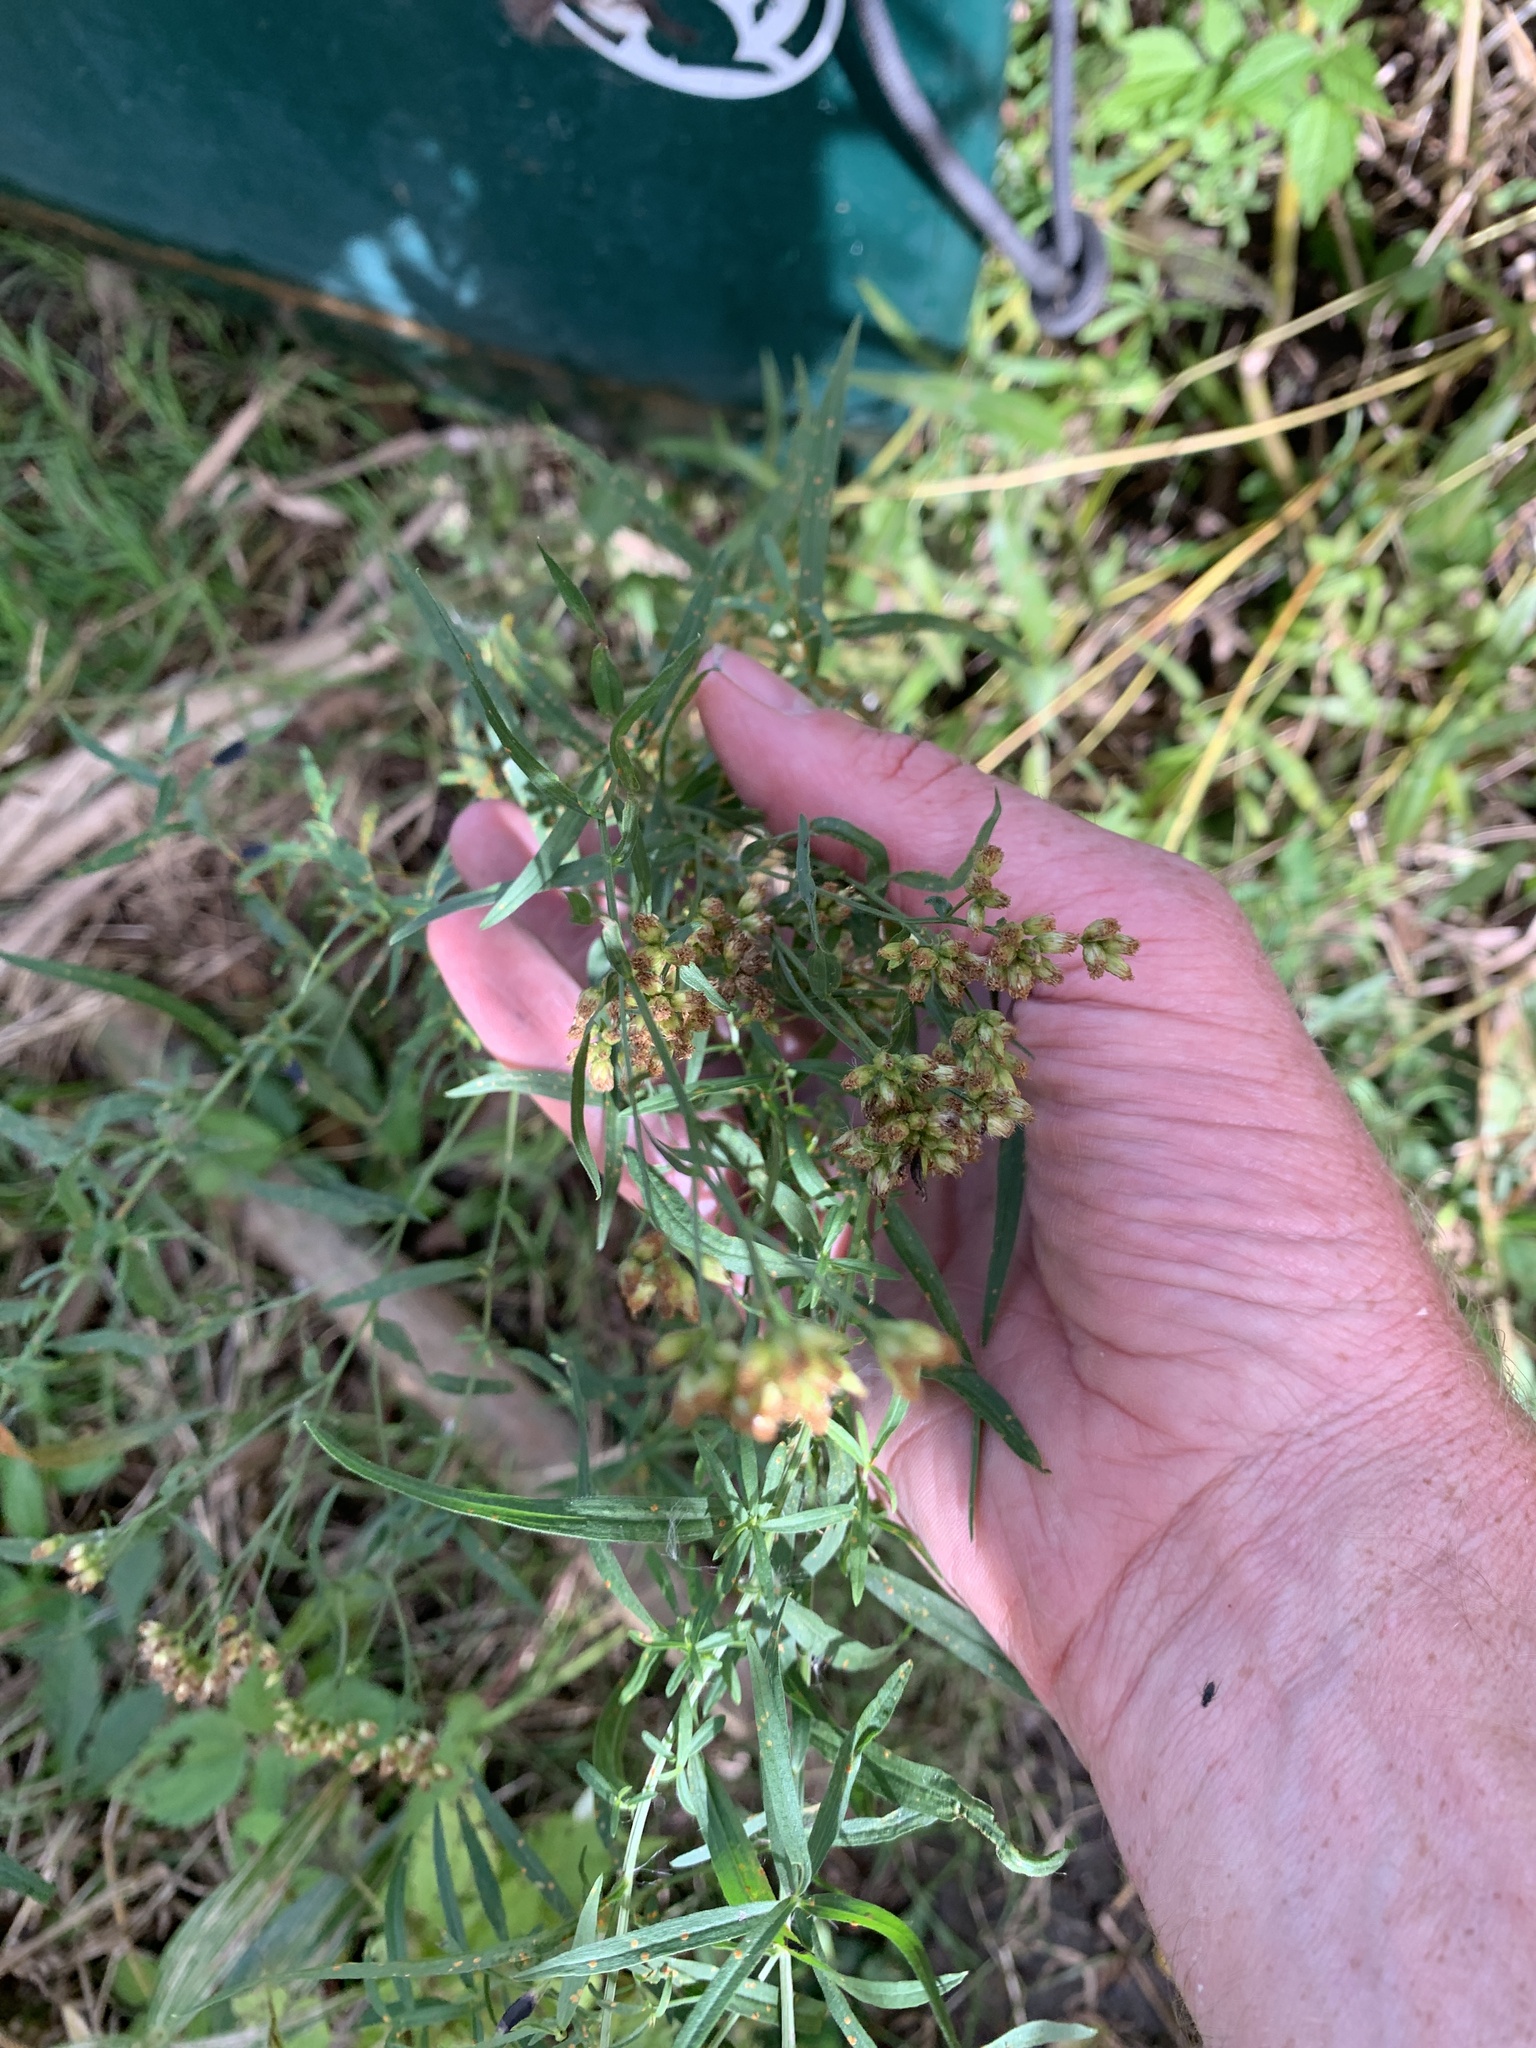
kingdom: Plantae
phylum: Tracheophyta
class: Magnoliopsida
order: Asterales
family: Asteraceae
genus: Euthamia
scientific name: Euthamia graminifolia
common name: Common goldentop
